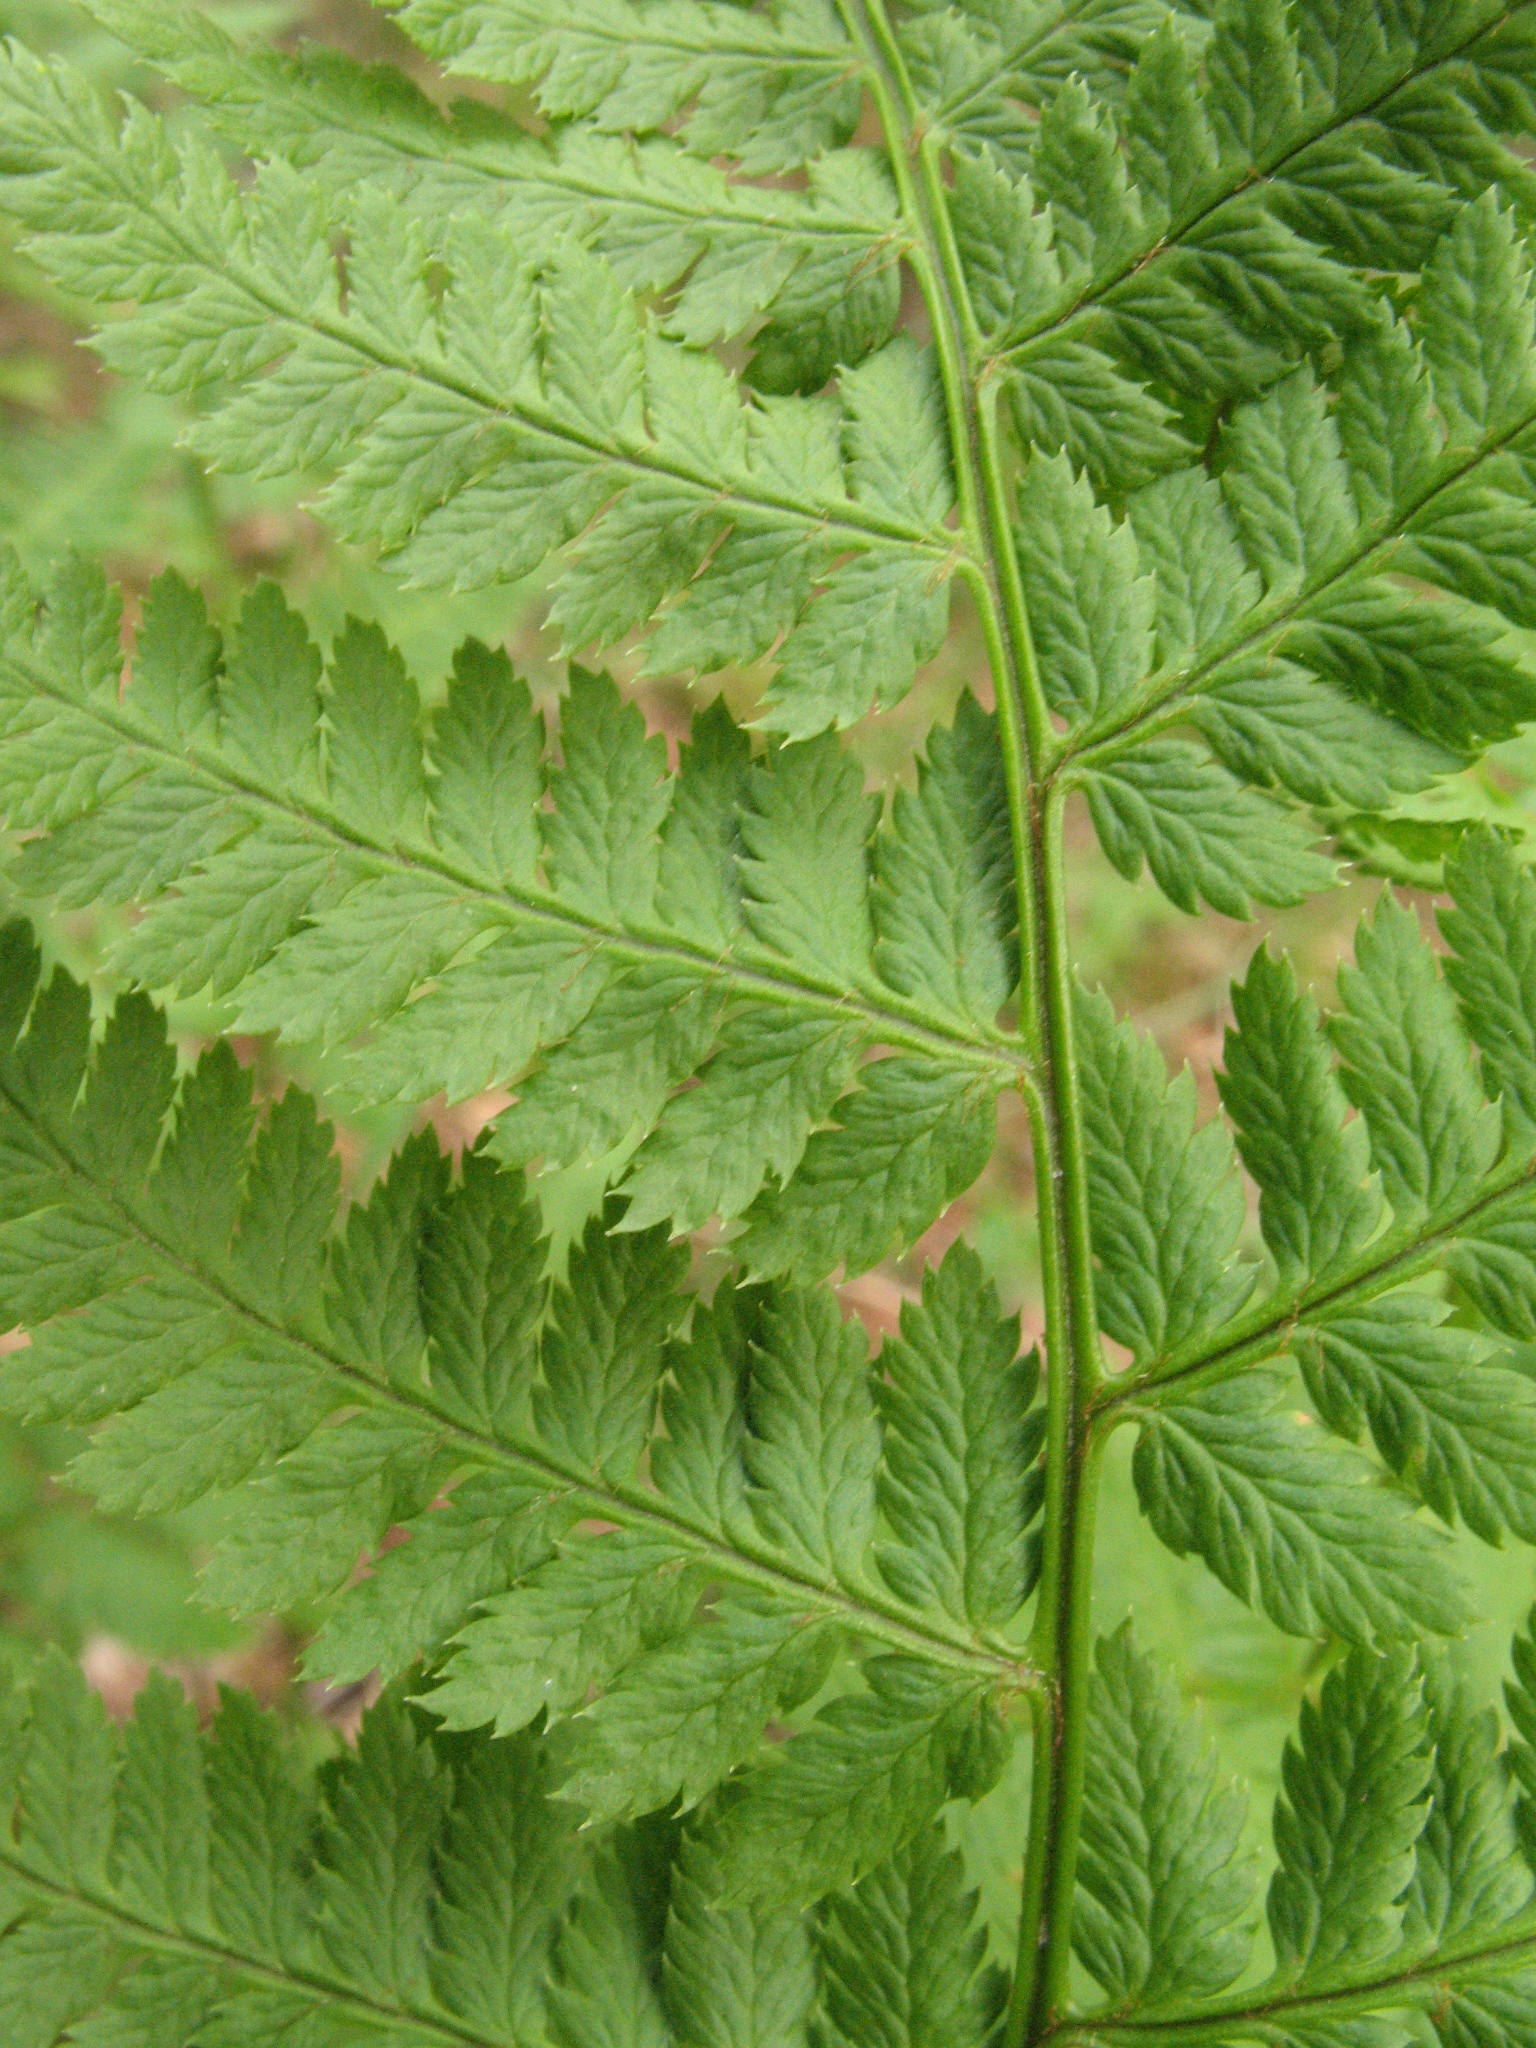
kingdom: Plantae
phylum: Tracheophyta
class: Polypodiopsida
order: Polypodiales
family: Dryopteridaceae
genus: Dryopteris
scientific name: Dryopteris carthusiana
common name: Narrow buckler-fern
